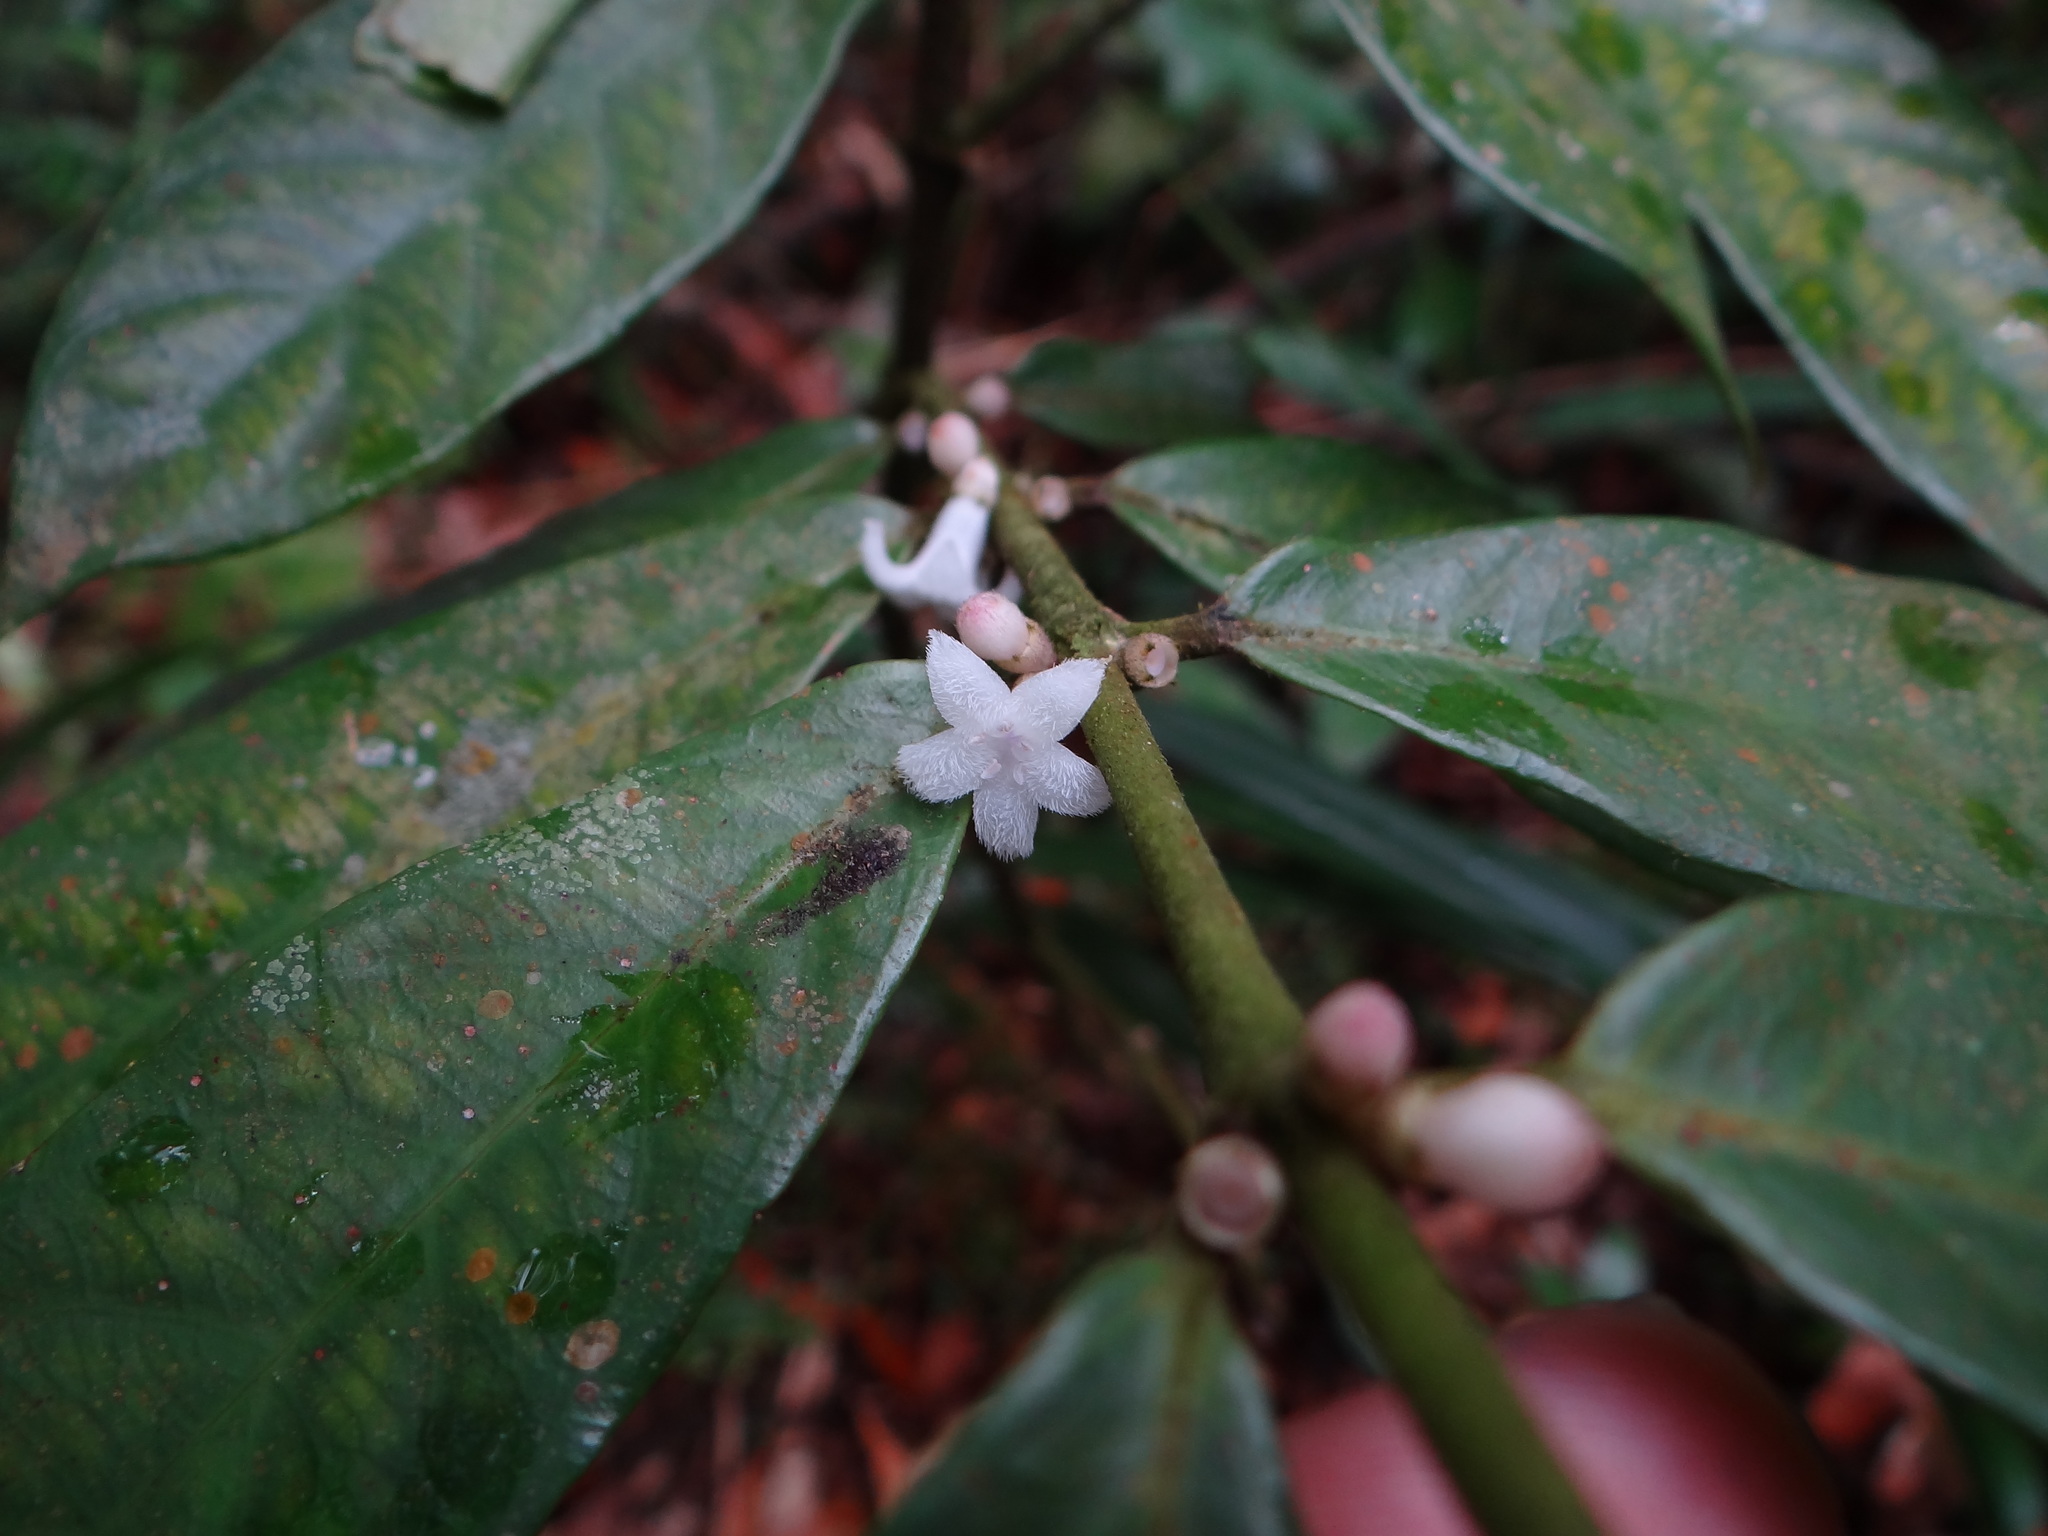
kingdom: Plantae
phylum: Tracheophyta
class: Magnoliopsida
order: Gentianales
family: Rubiaceae
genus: Lasianthus
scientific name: Lasianthus verticillatus
